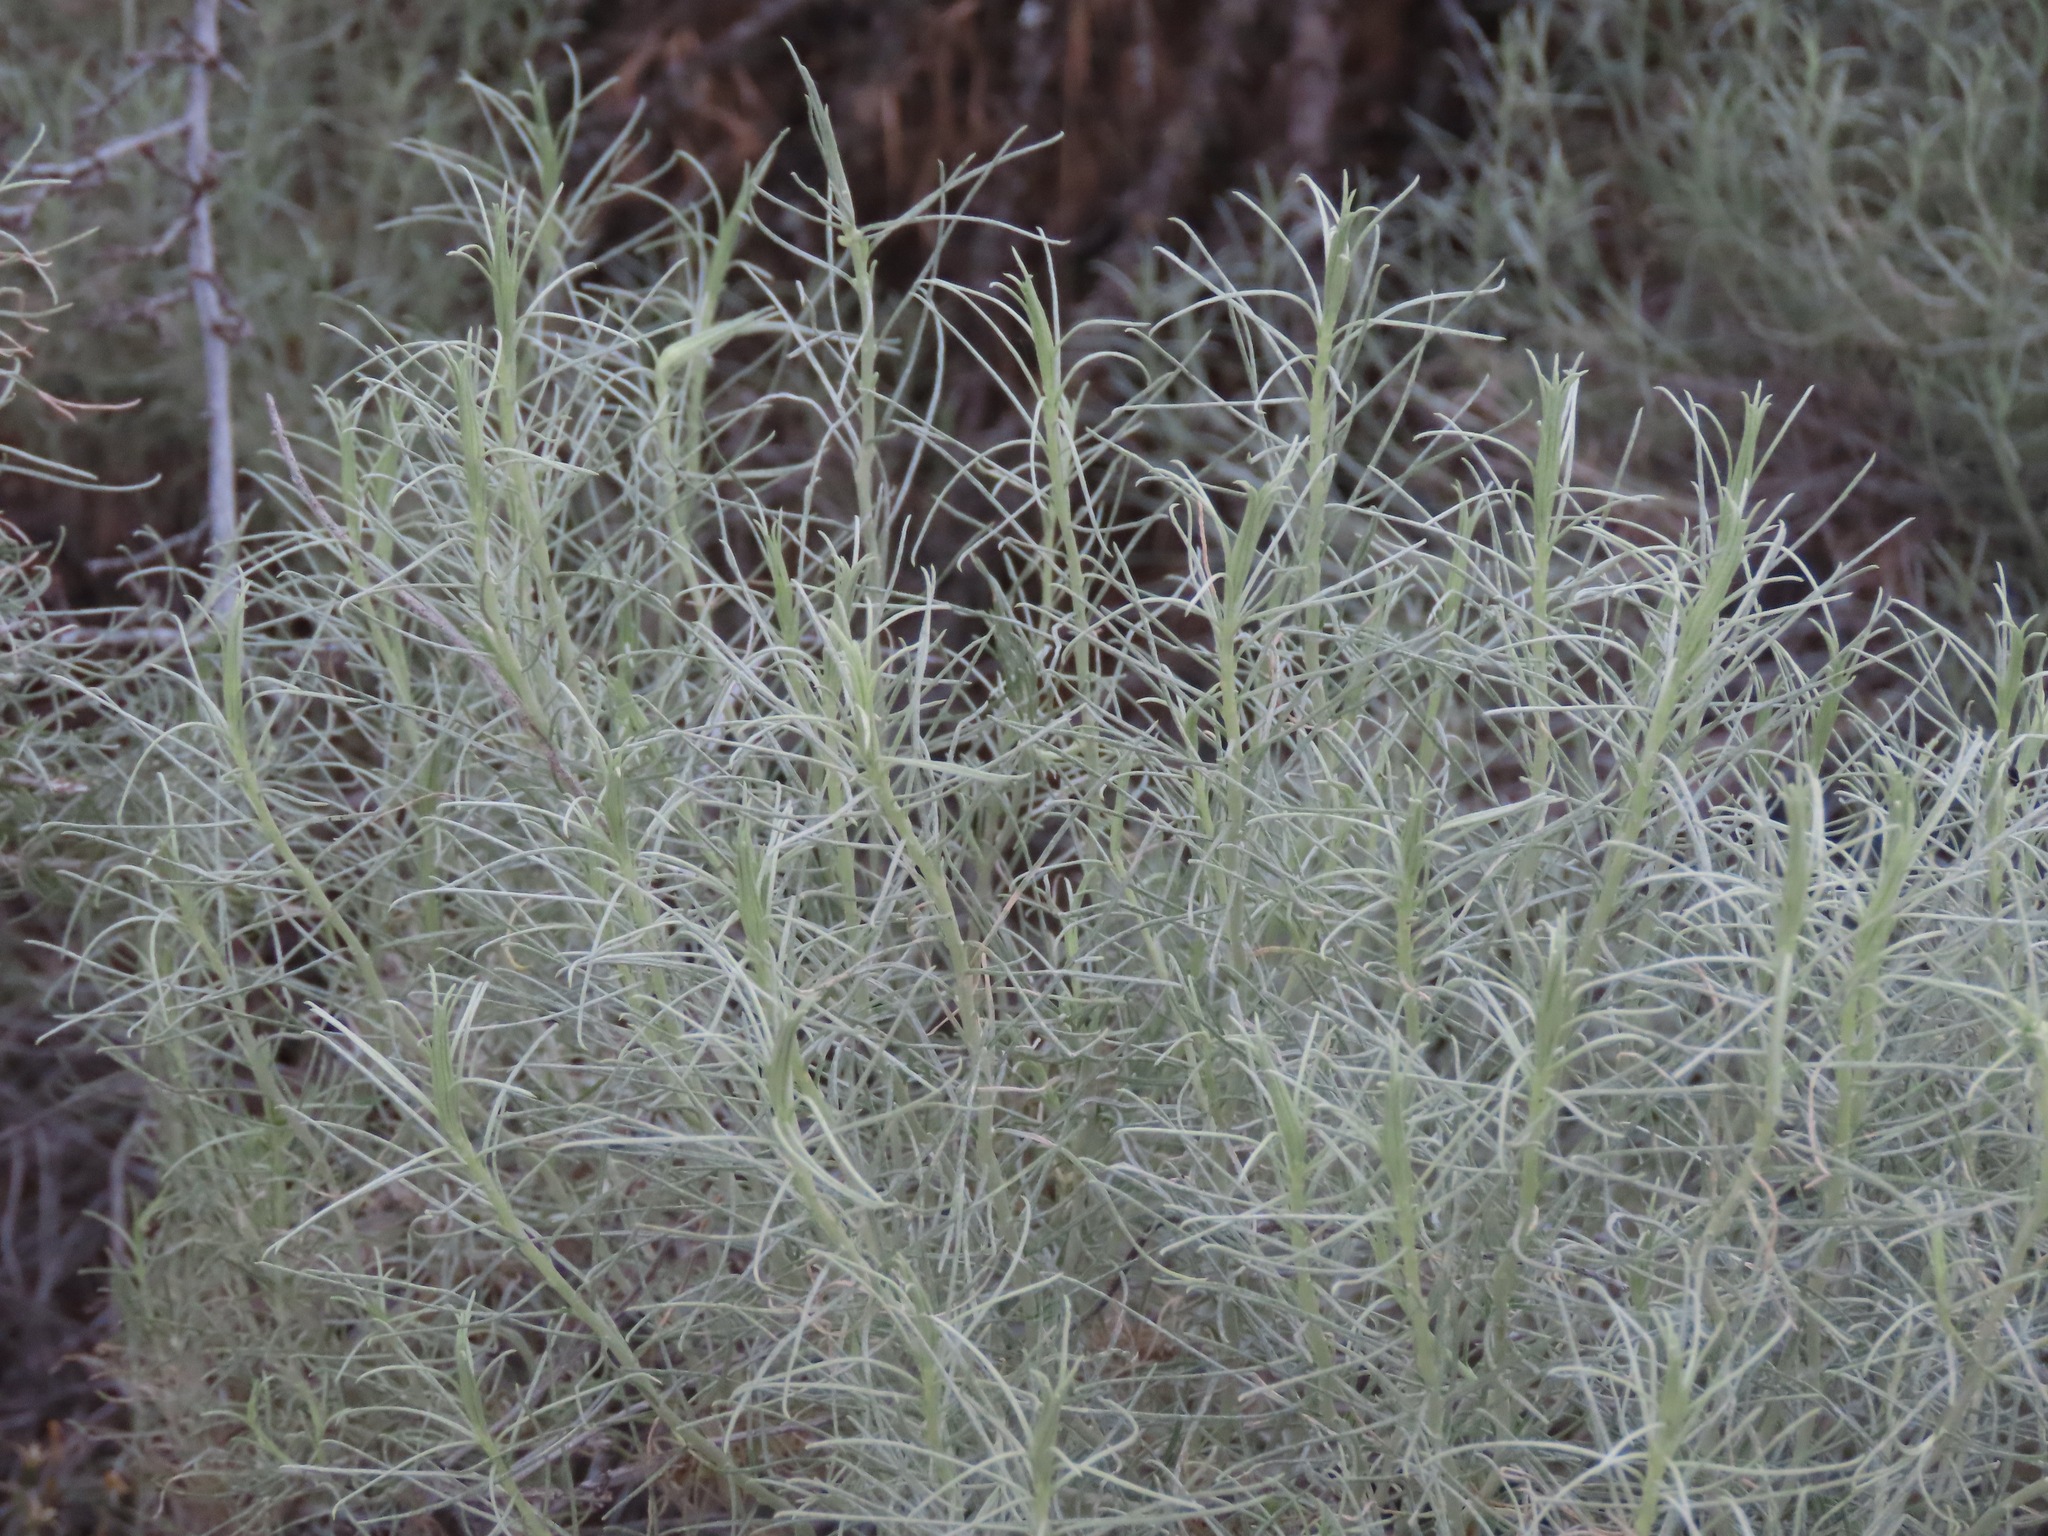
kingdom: Plantae
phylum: Tracheophyta
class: Magnoliopsida
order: Asterales
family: Asteraceae
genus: Ericameria
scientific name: Ericameria nauseosa
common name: Rubber rabbitbrush
